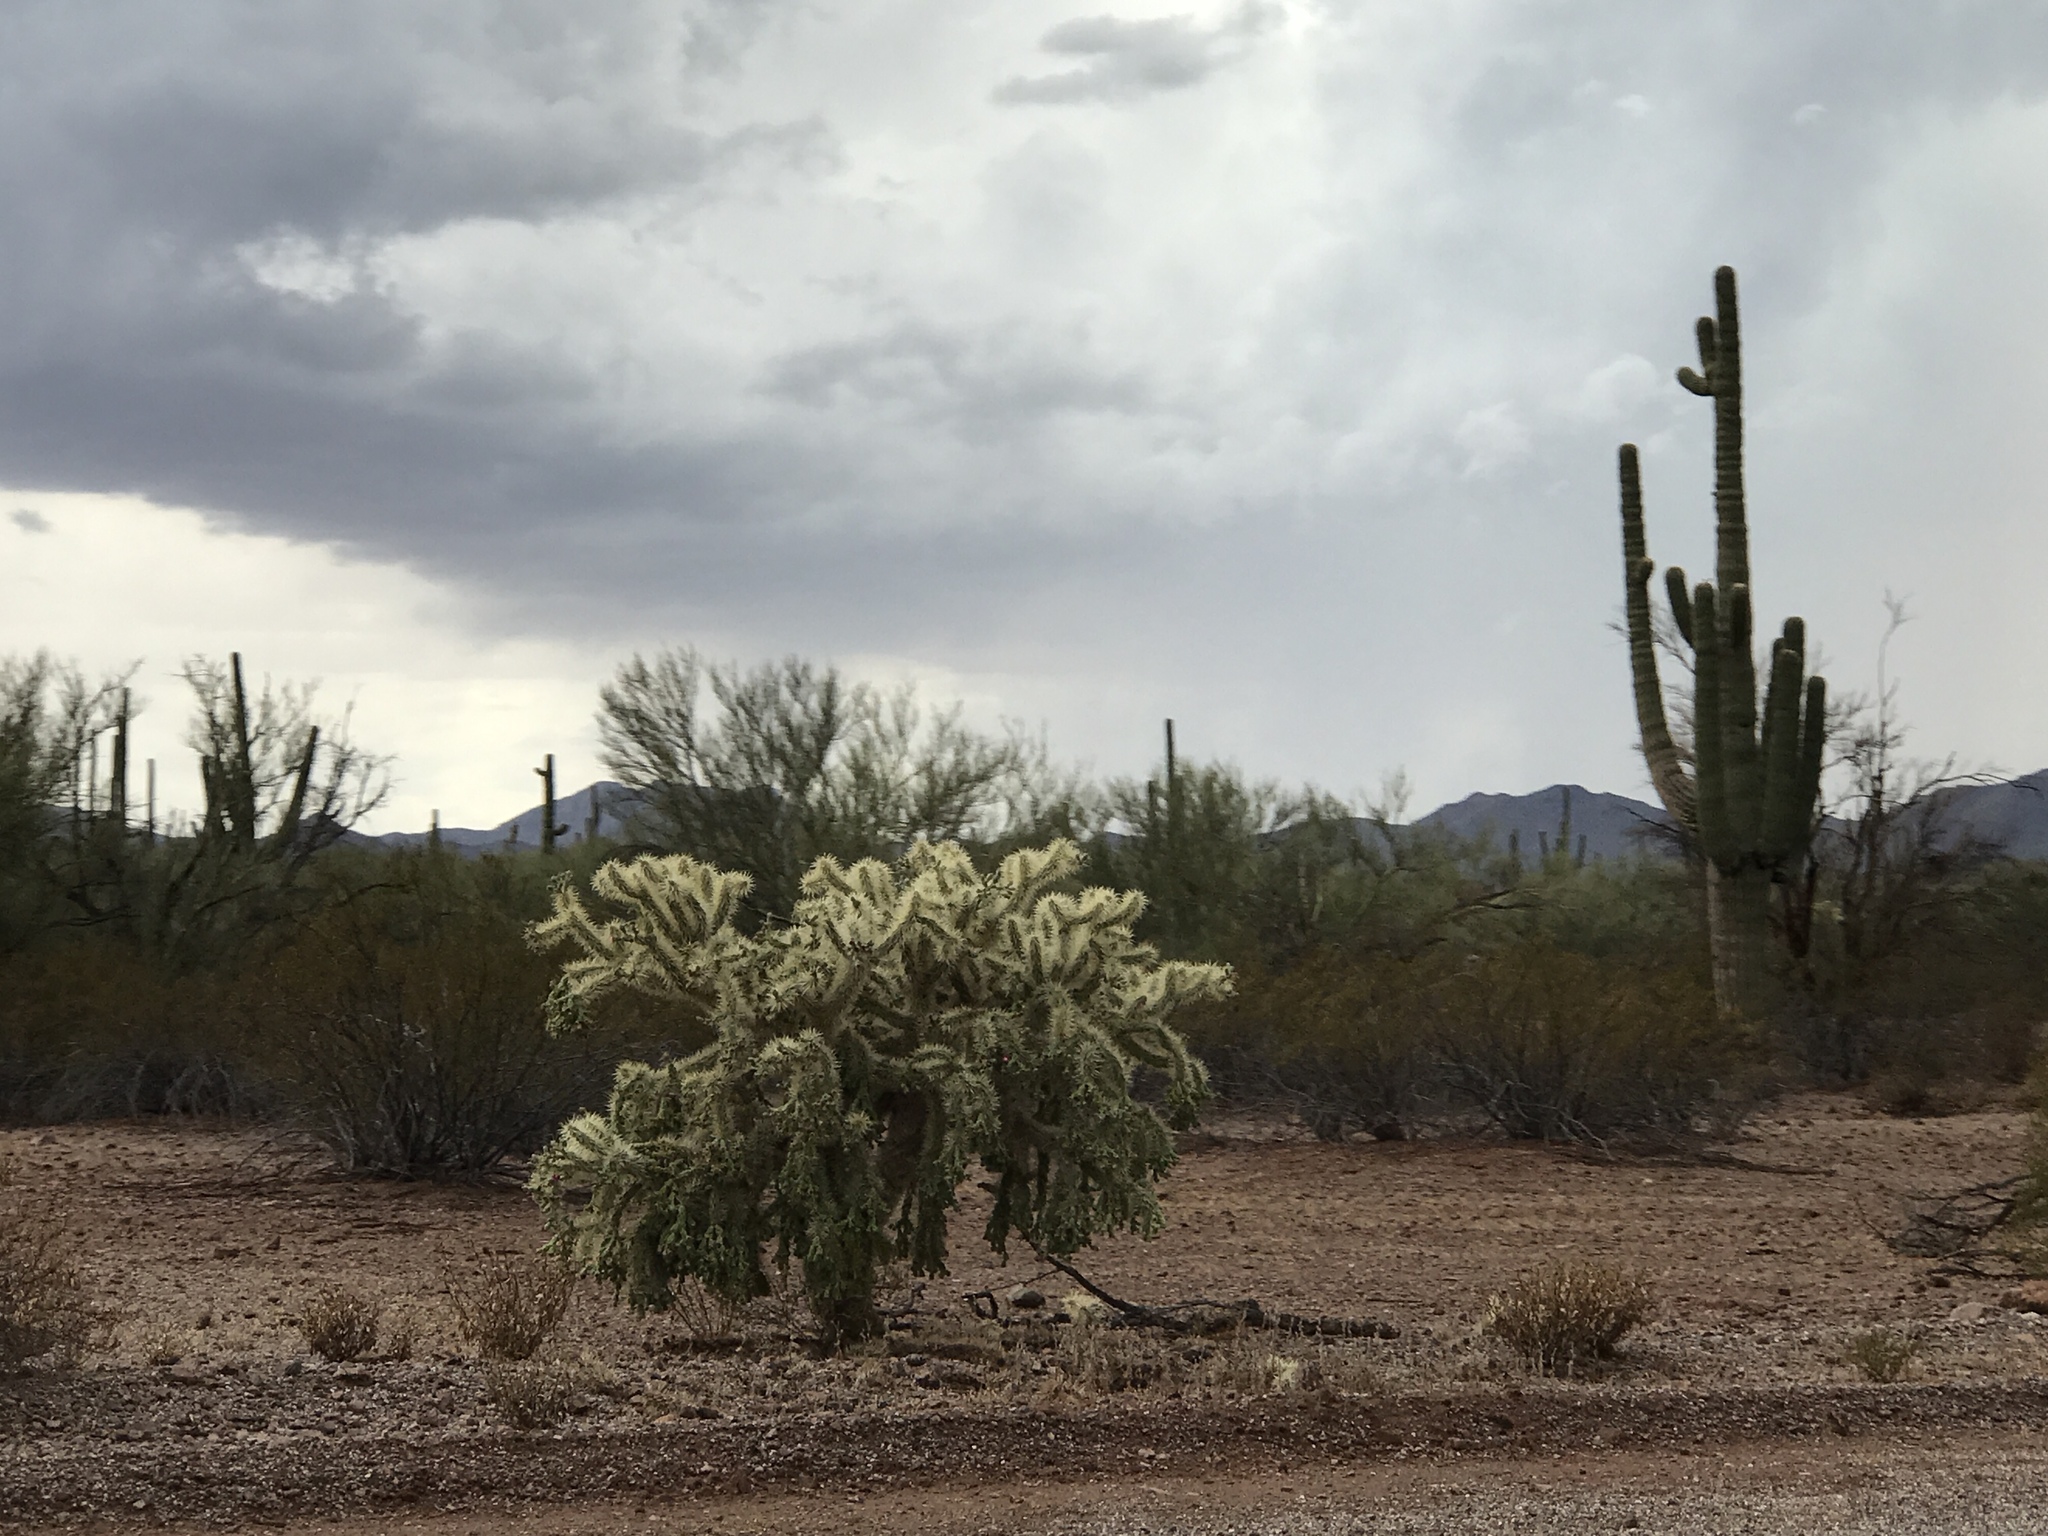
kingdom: Plantae
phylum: Tracheophyta
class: Magnoliopsida
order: Caryophyllales
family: Cactaceae
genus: Cylindropuntia
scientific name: Cylindropuntia fulgida
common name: Jumping cholla
